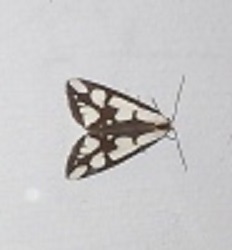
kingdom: Animalia
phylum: Arthropoda
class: Insecta
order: Lepidoptera
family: Erebidae
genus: Haploa
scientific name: Haploa lecontei
